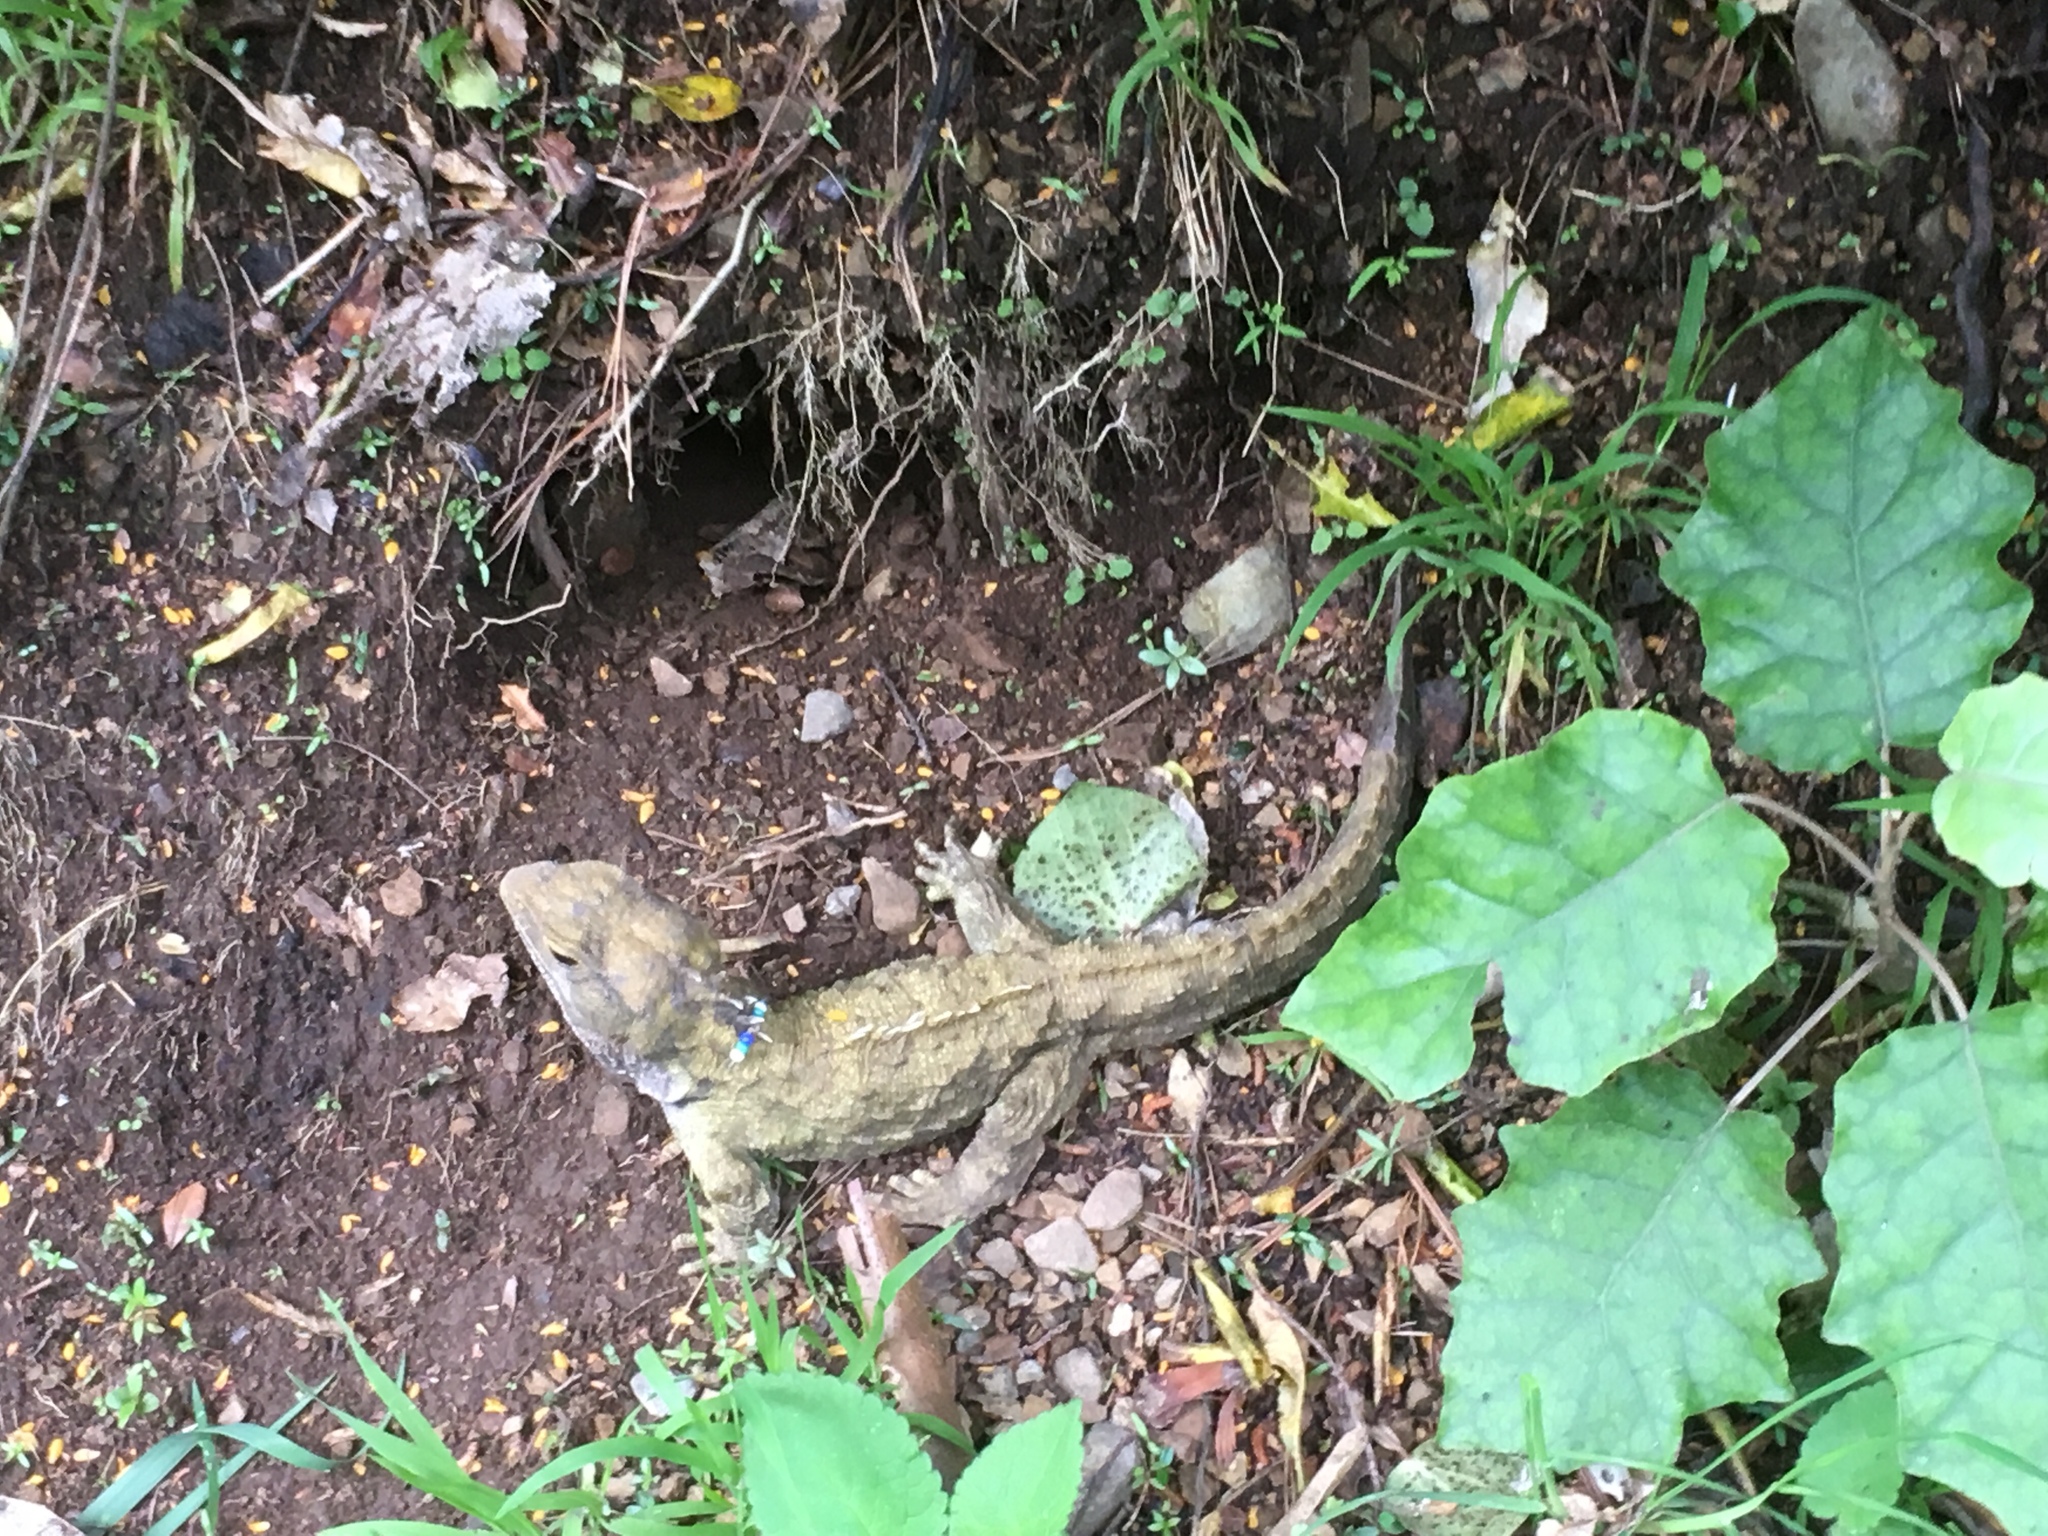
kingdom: Animalia
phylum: Chordata
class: Sphenodontia
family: Sphenodontidae
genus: Sphenodon
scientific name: Sphenodon punctatus
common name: Tuatara
